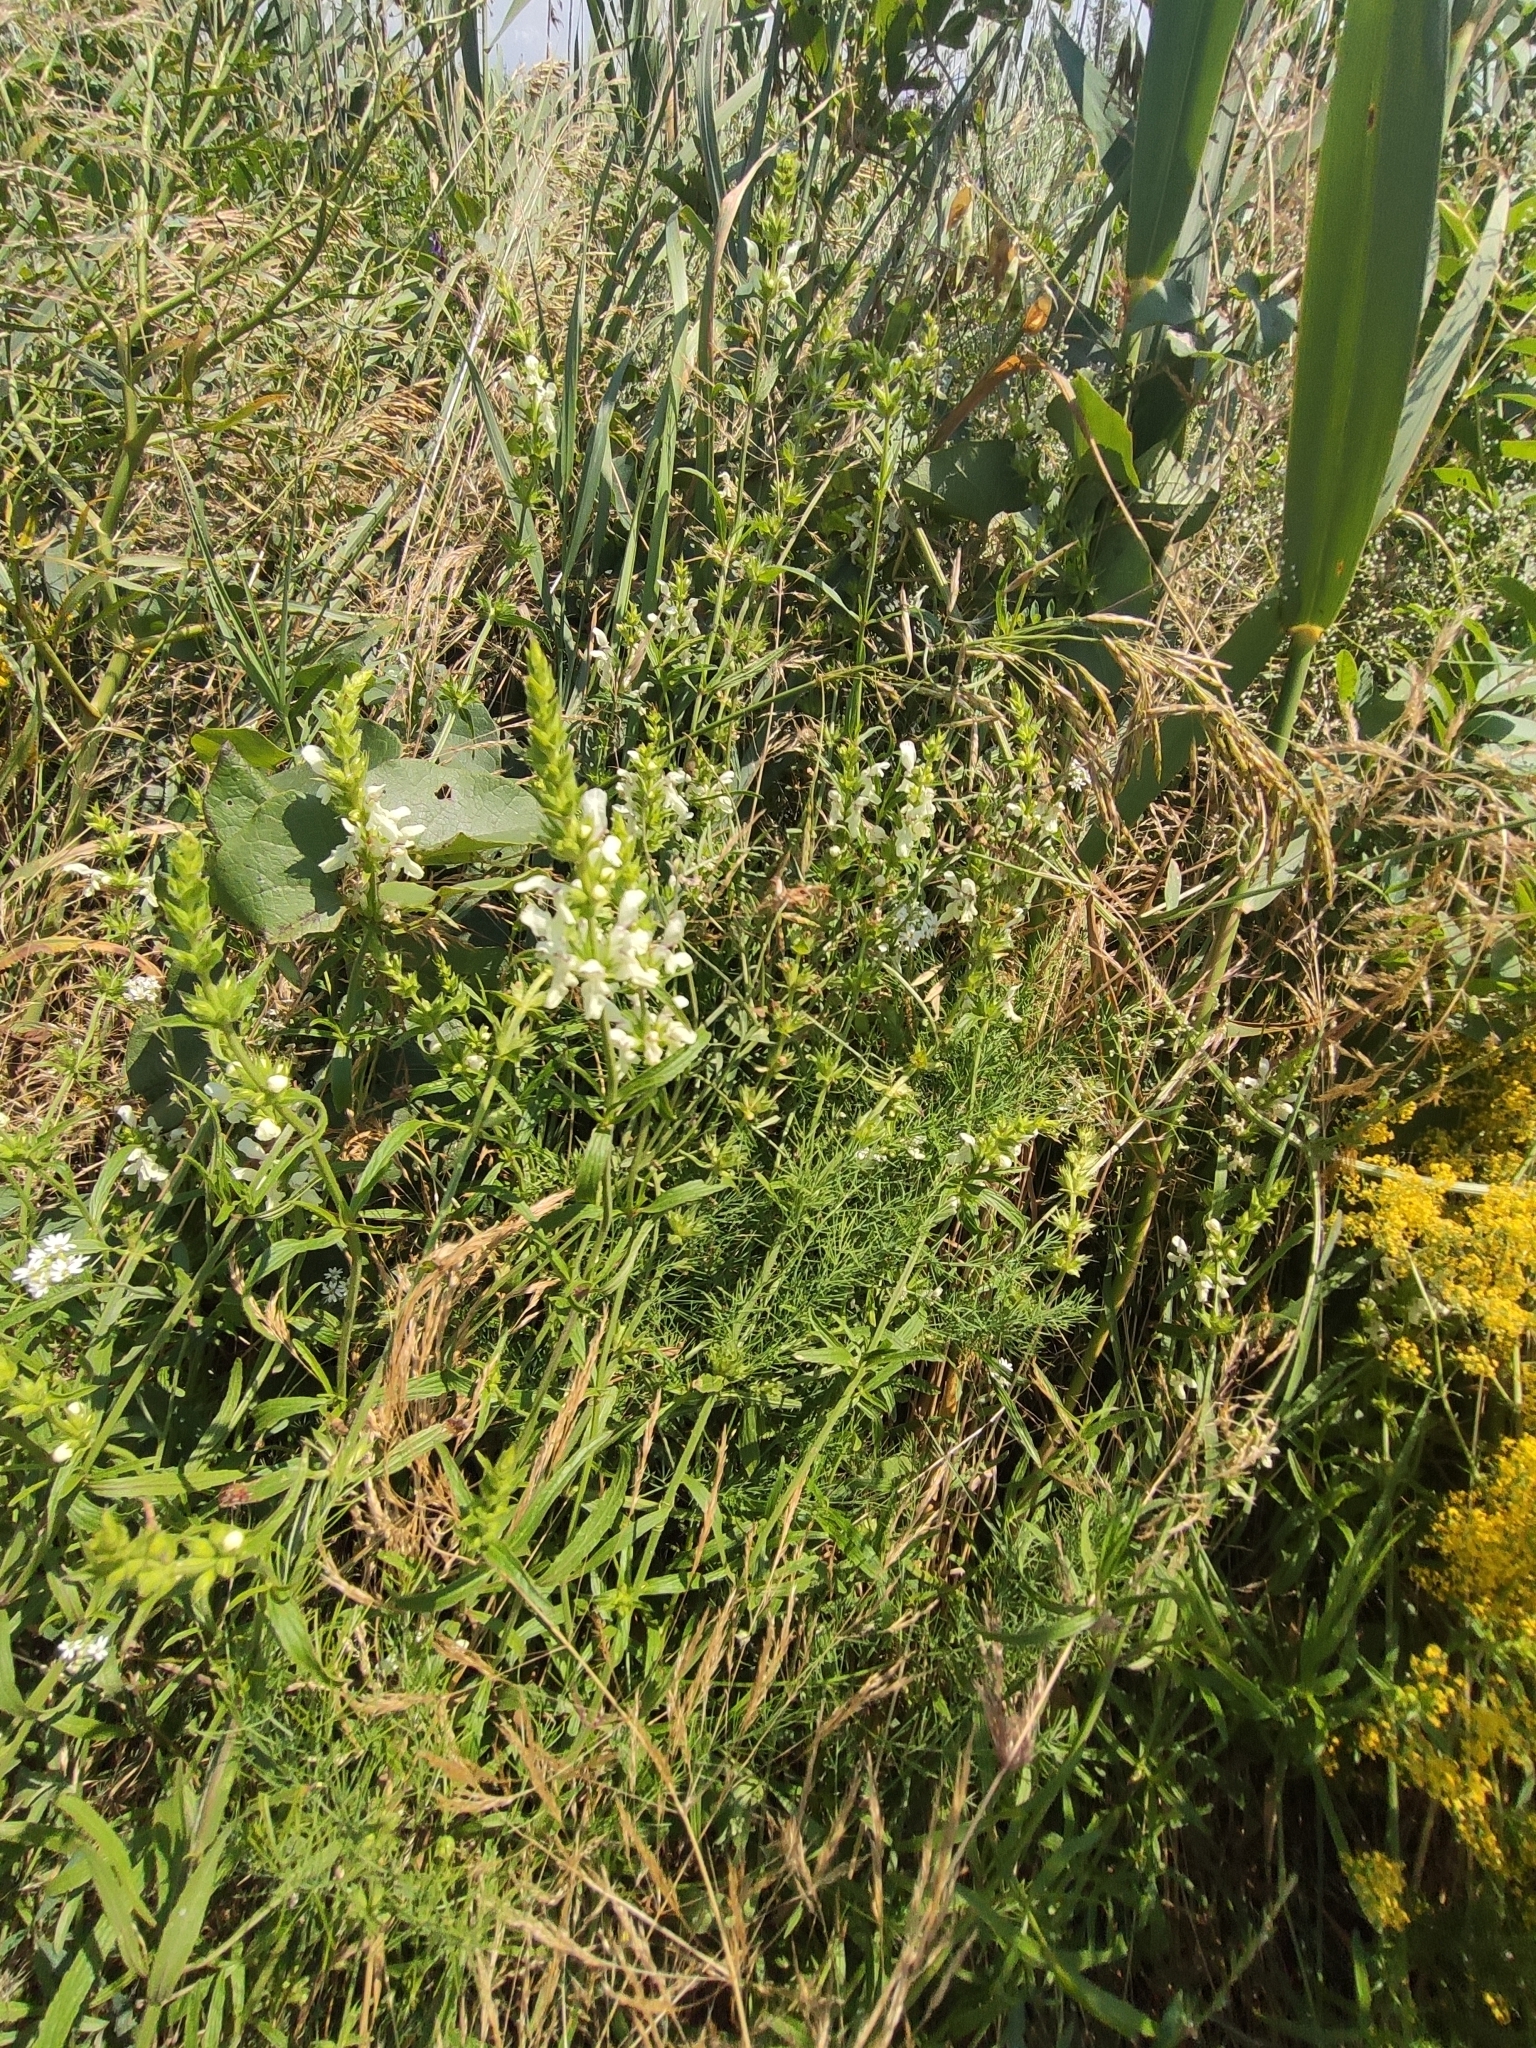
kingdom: Plantae
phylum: Tracheophyta
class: Magnoliopsida
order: Lamiales
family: Lamiaceae
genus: Stachys
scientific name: Stachys recta
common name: Perennial yellow-woundwort
